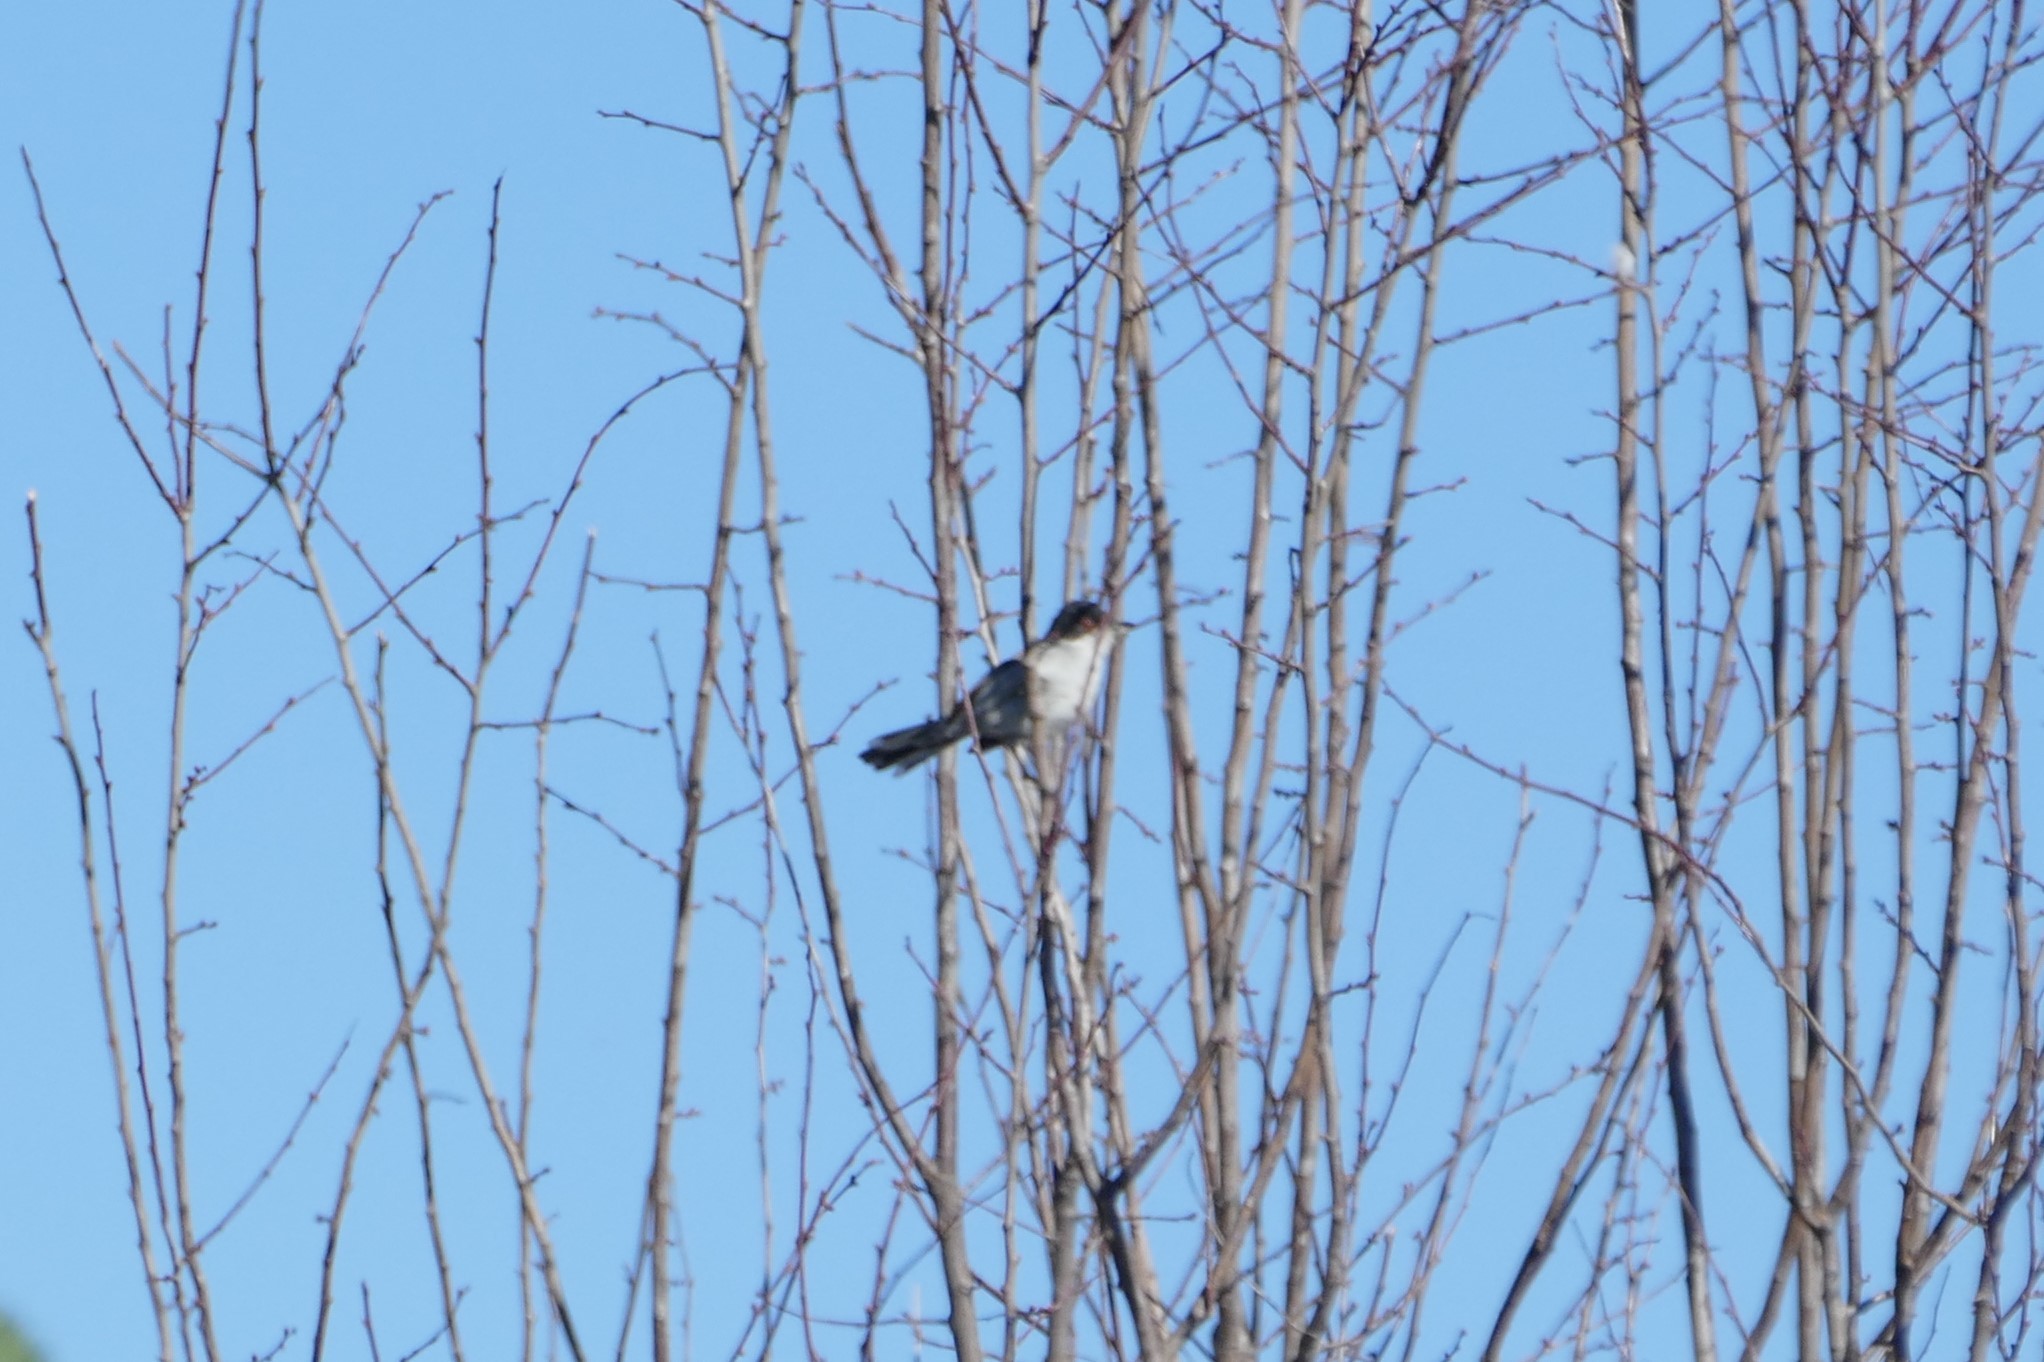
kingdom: Animalia
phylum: Chordata
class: Aves
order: Passeriformes
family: Sylviidae
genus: Curruca
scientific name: Curruca melanocephala
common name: Sardinian warbler
